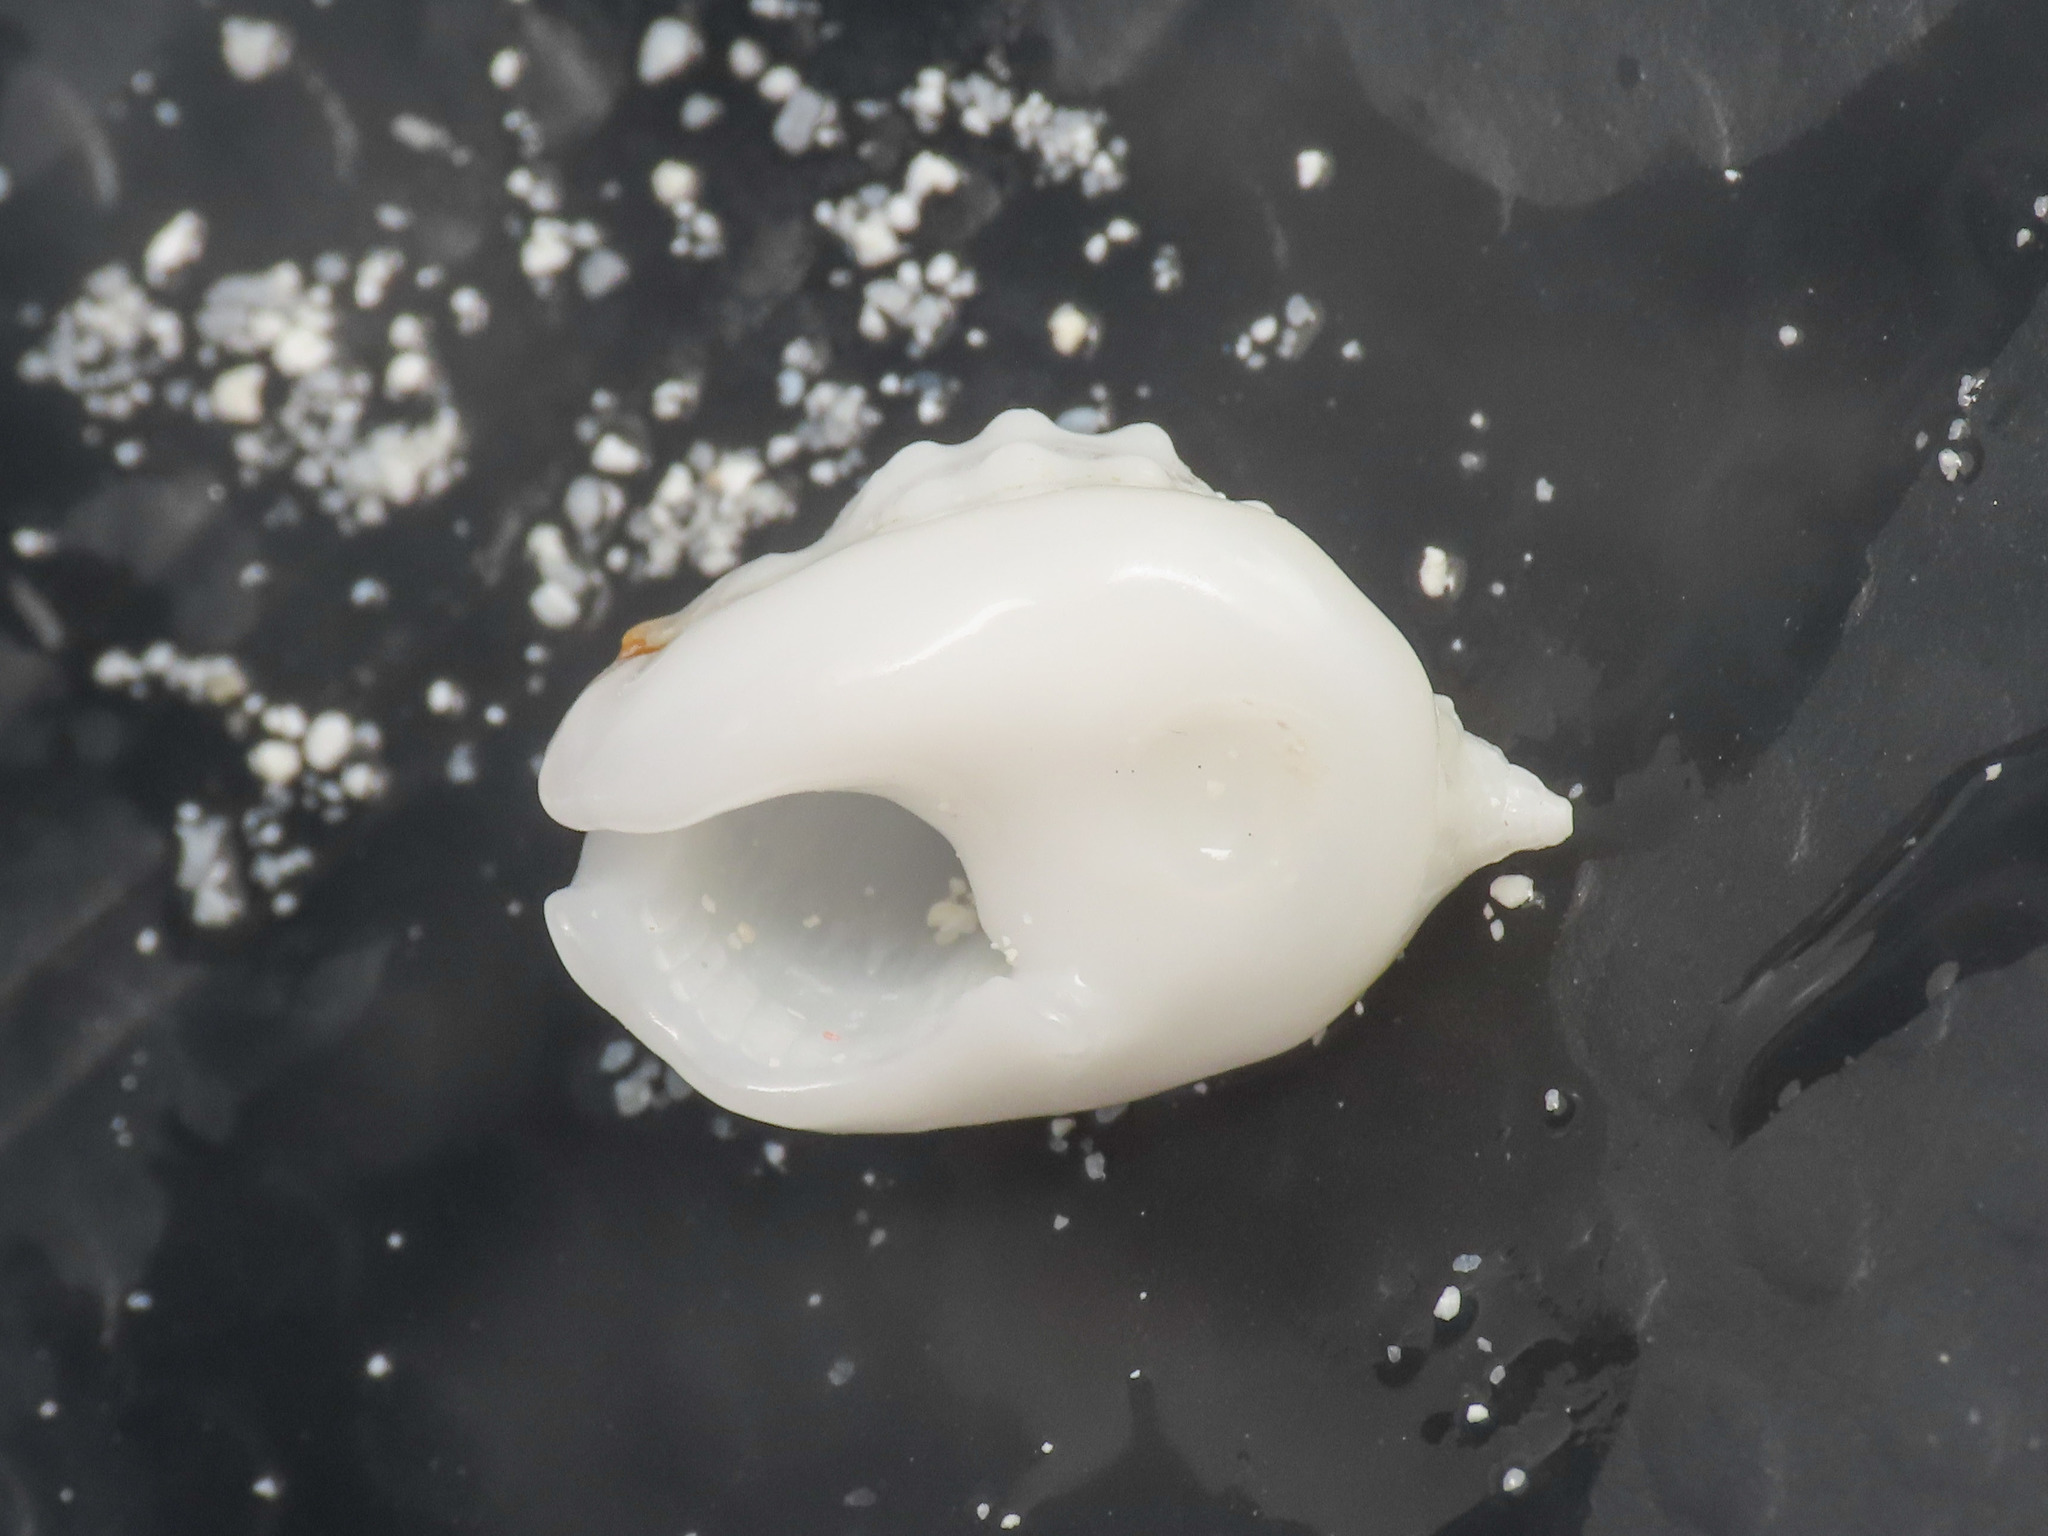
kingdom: Animalia
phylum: Mollusca
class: Gastropoda
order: Neogastropoda
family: Nassariidae
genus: Nassarius
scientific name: Nassarius granifer
